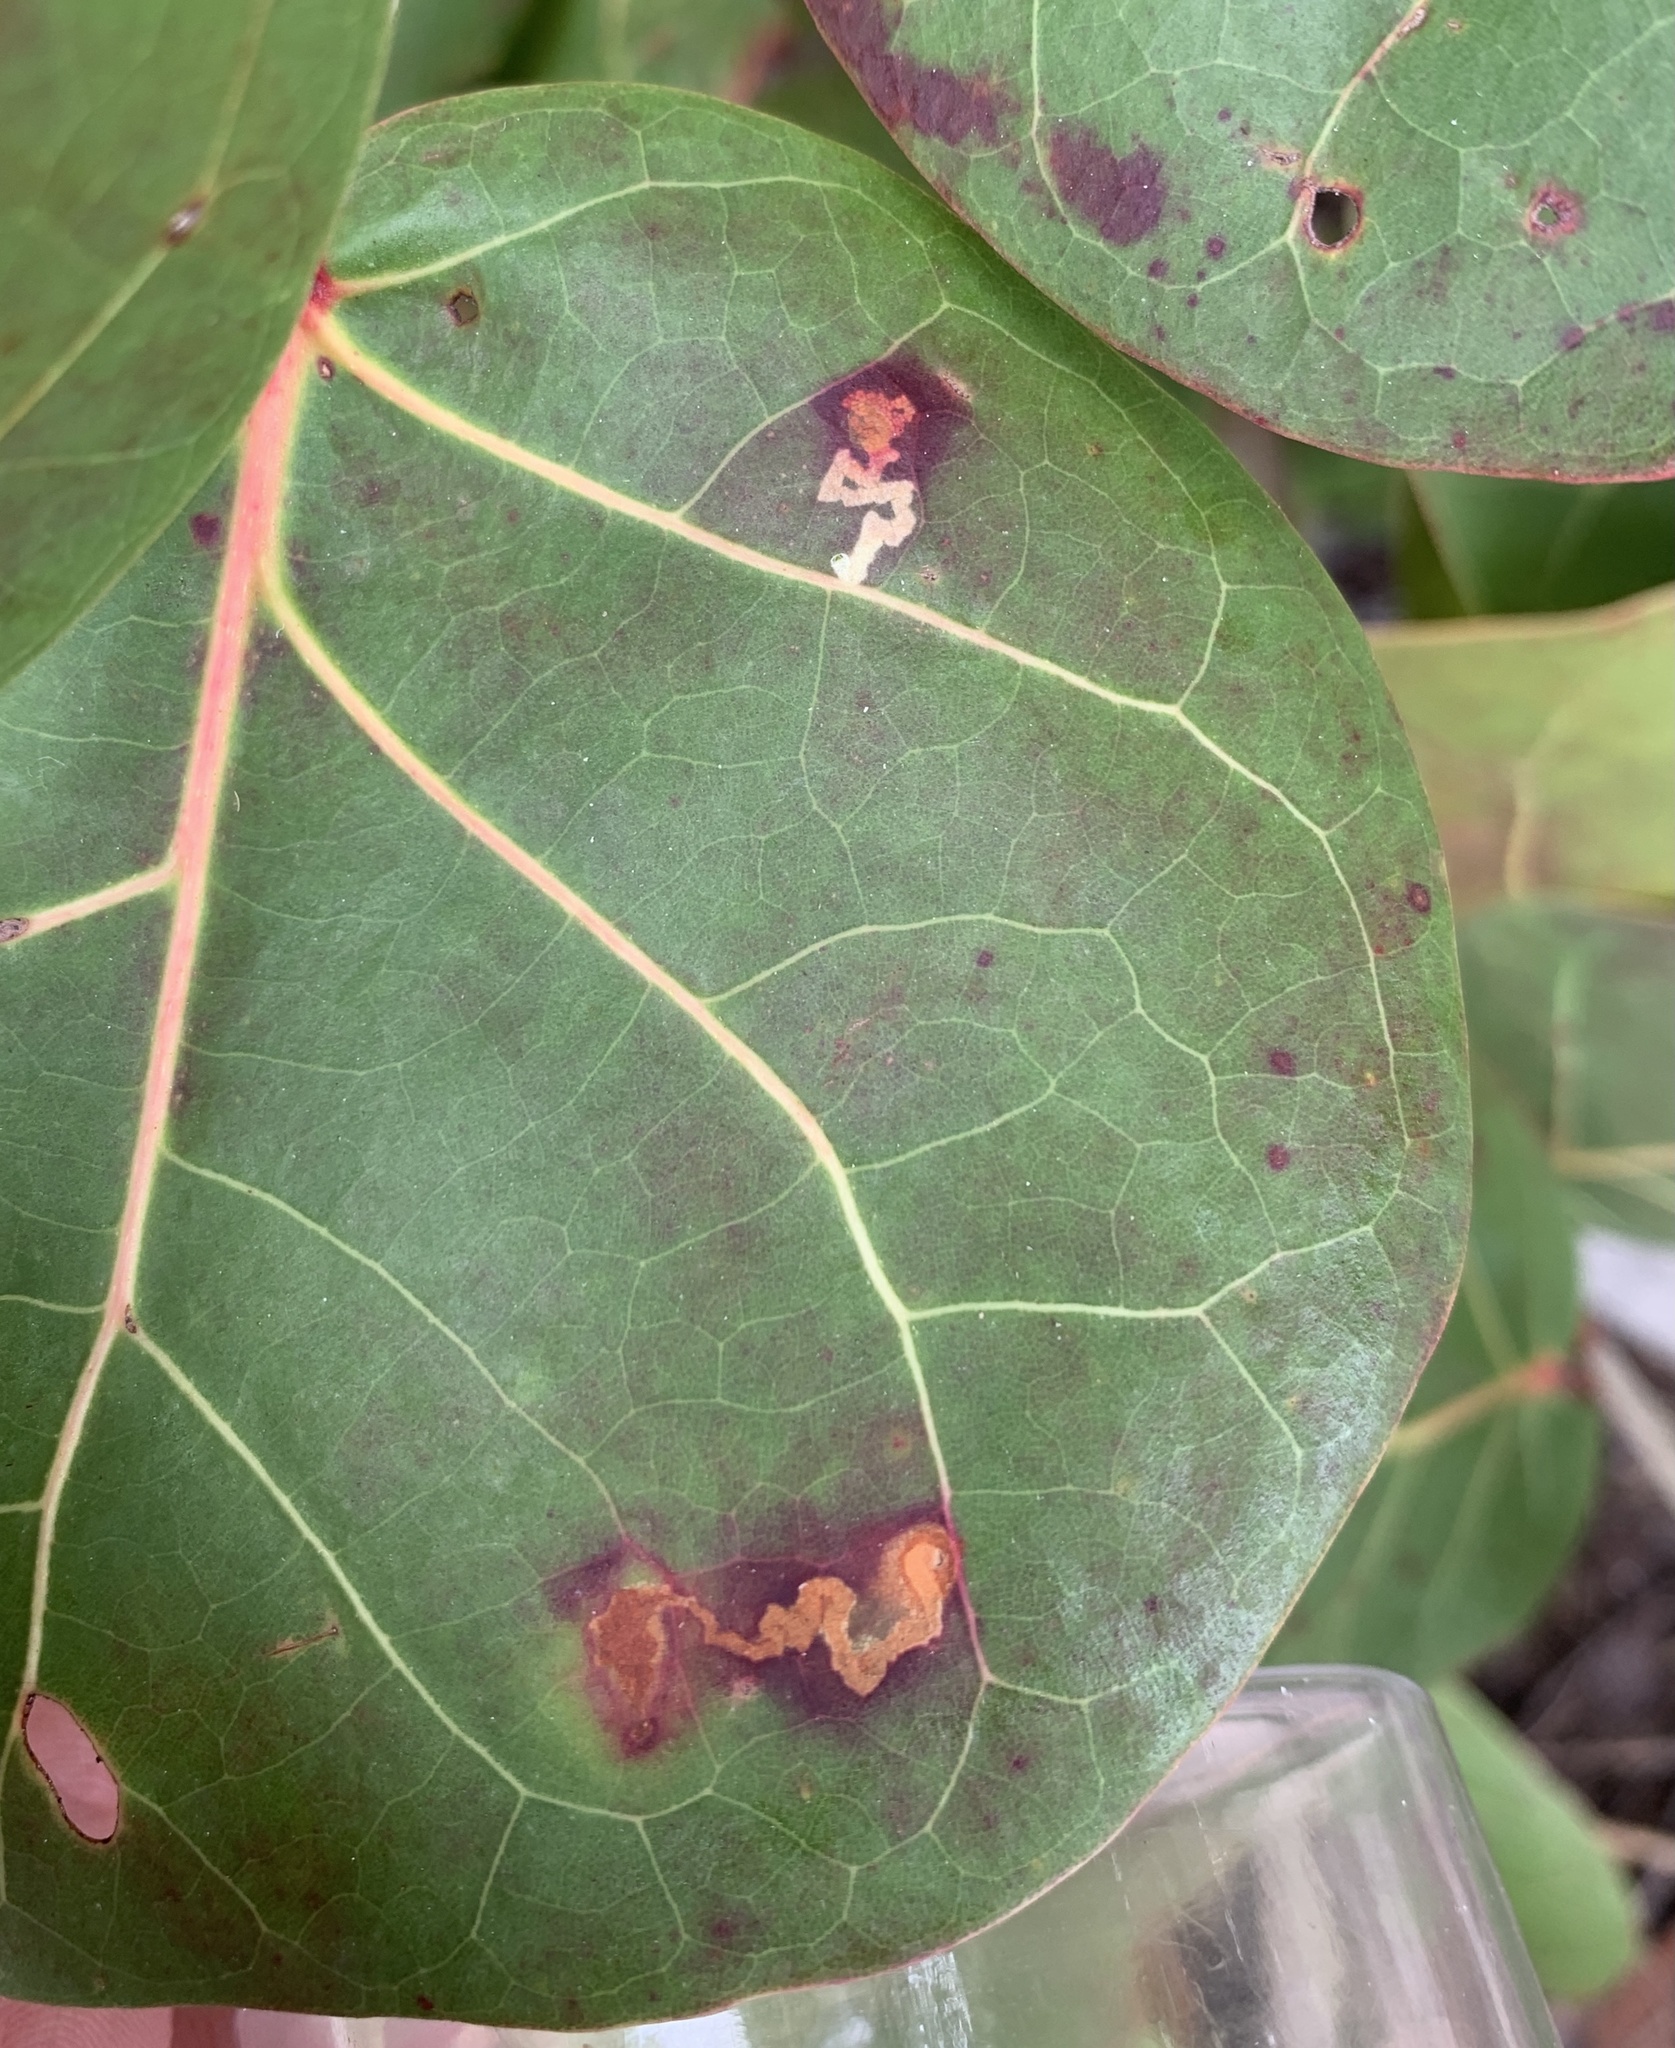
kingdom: Animalia
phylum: Arthropoda
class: Insecta
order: Lepidoptera
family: Nepticulidae
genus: Enteucha
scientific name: Enteucha gilvafascia
